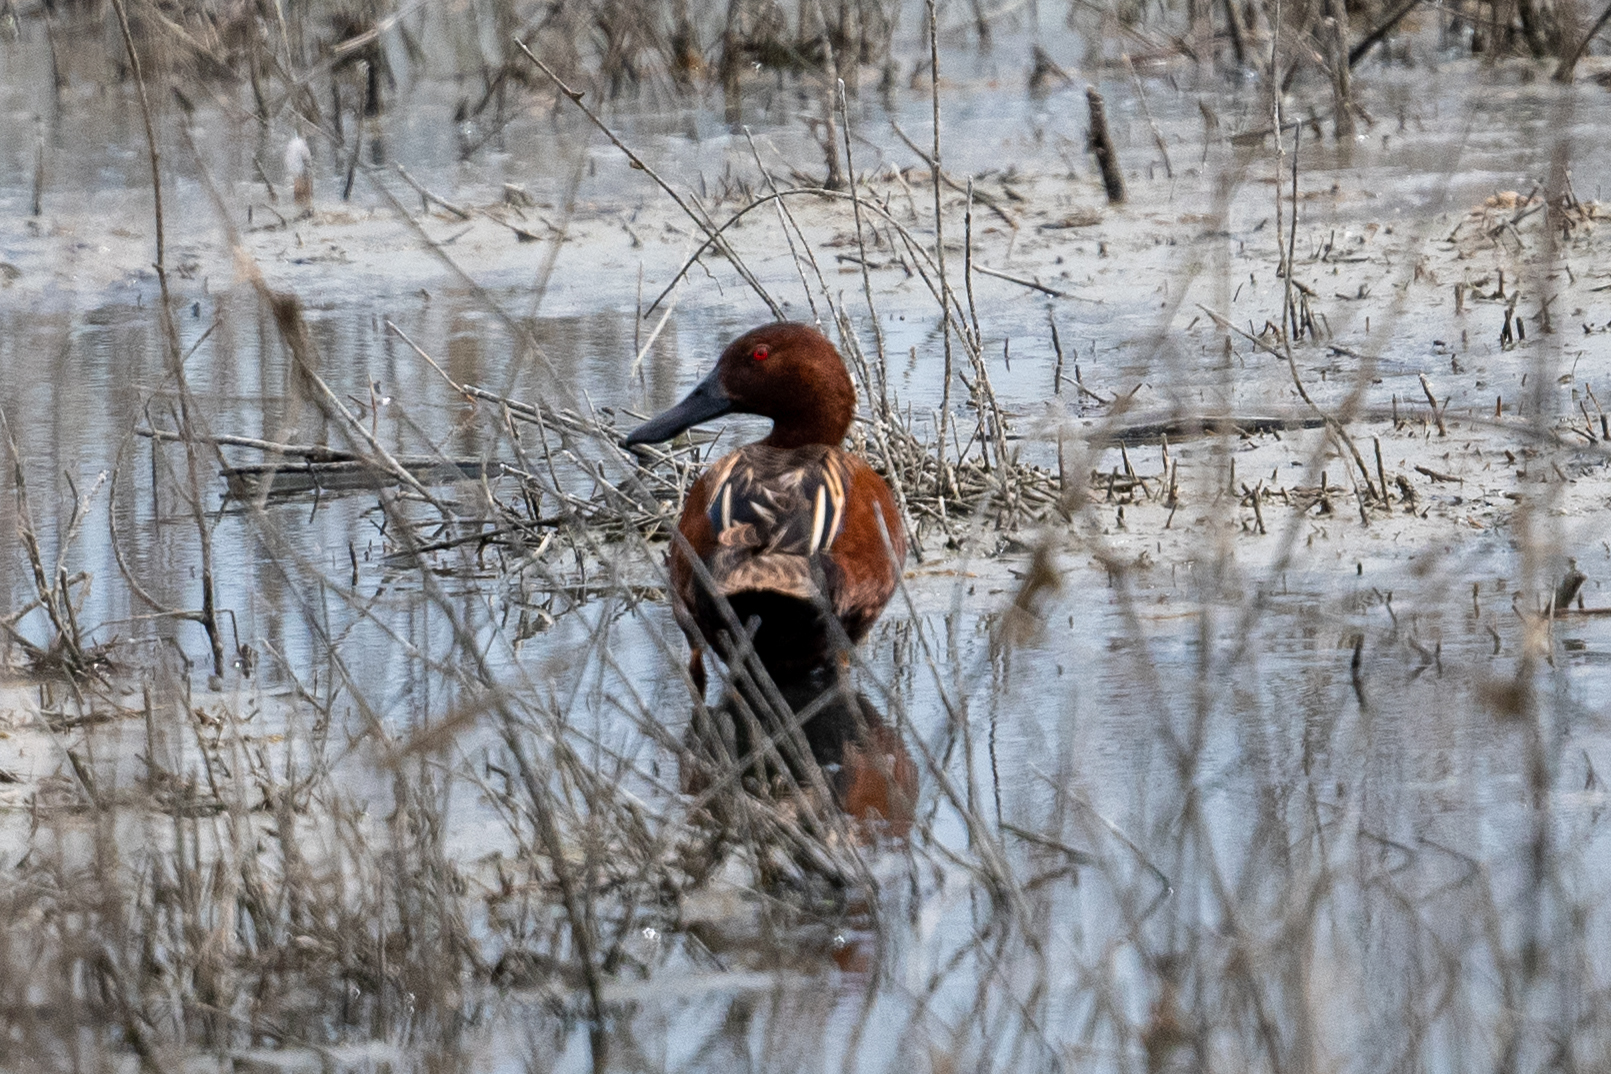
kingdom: Animalia
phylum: Chordata
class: Aves
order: Anseriformes
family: Anatidae
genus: Spatula
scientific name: Spatula cyanoptera
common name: Cinnamon teal
